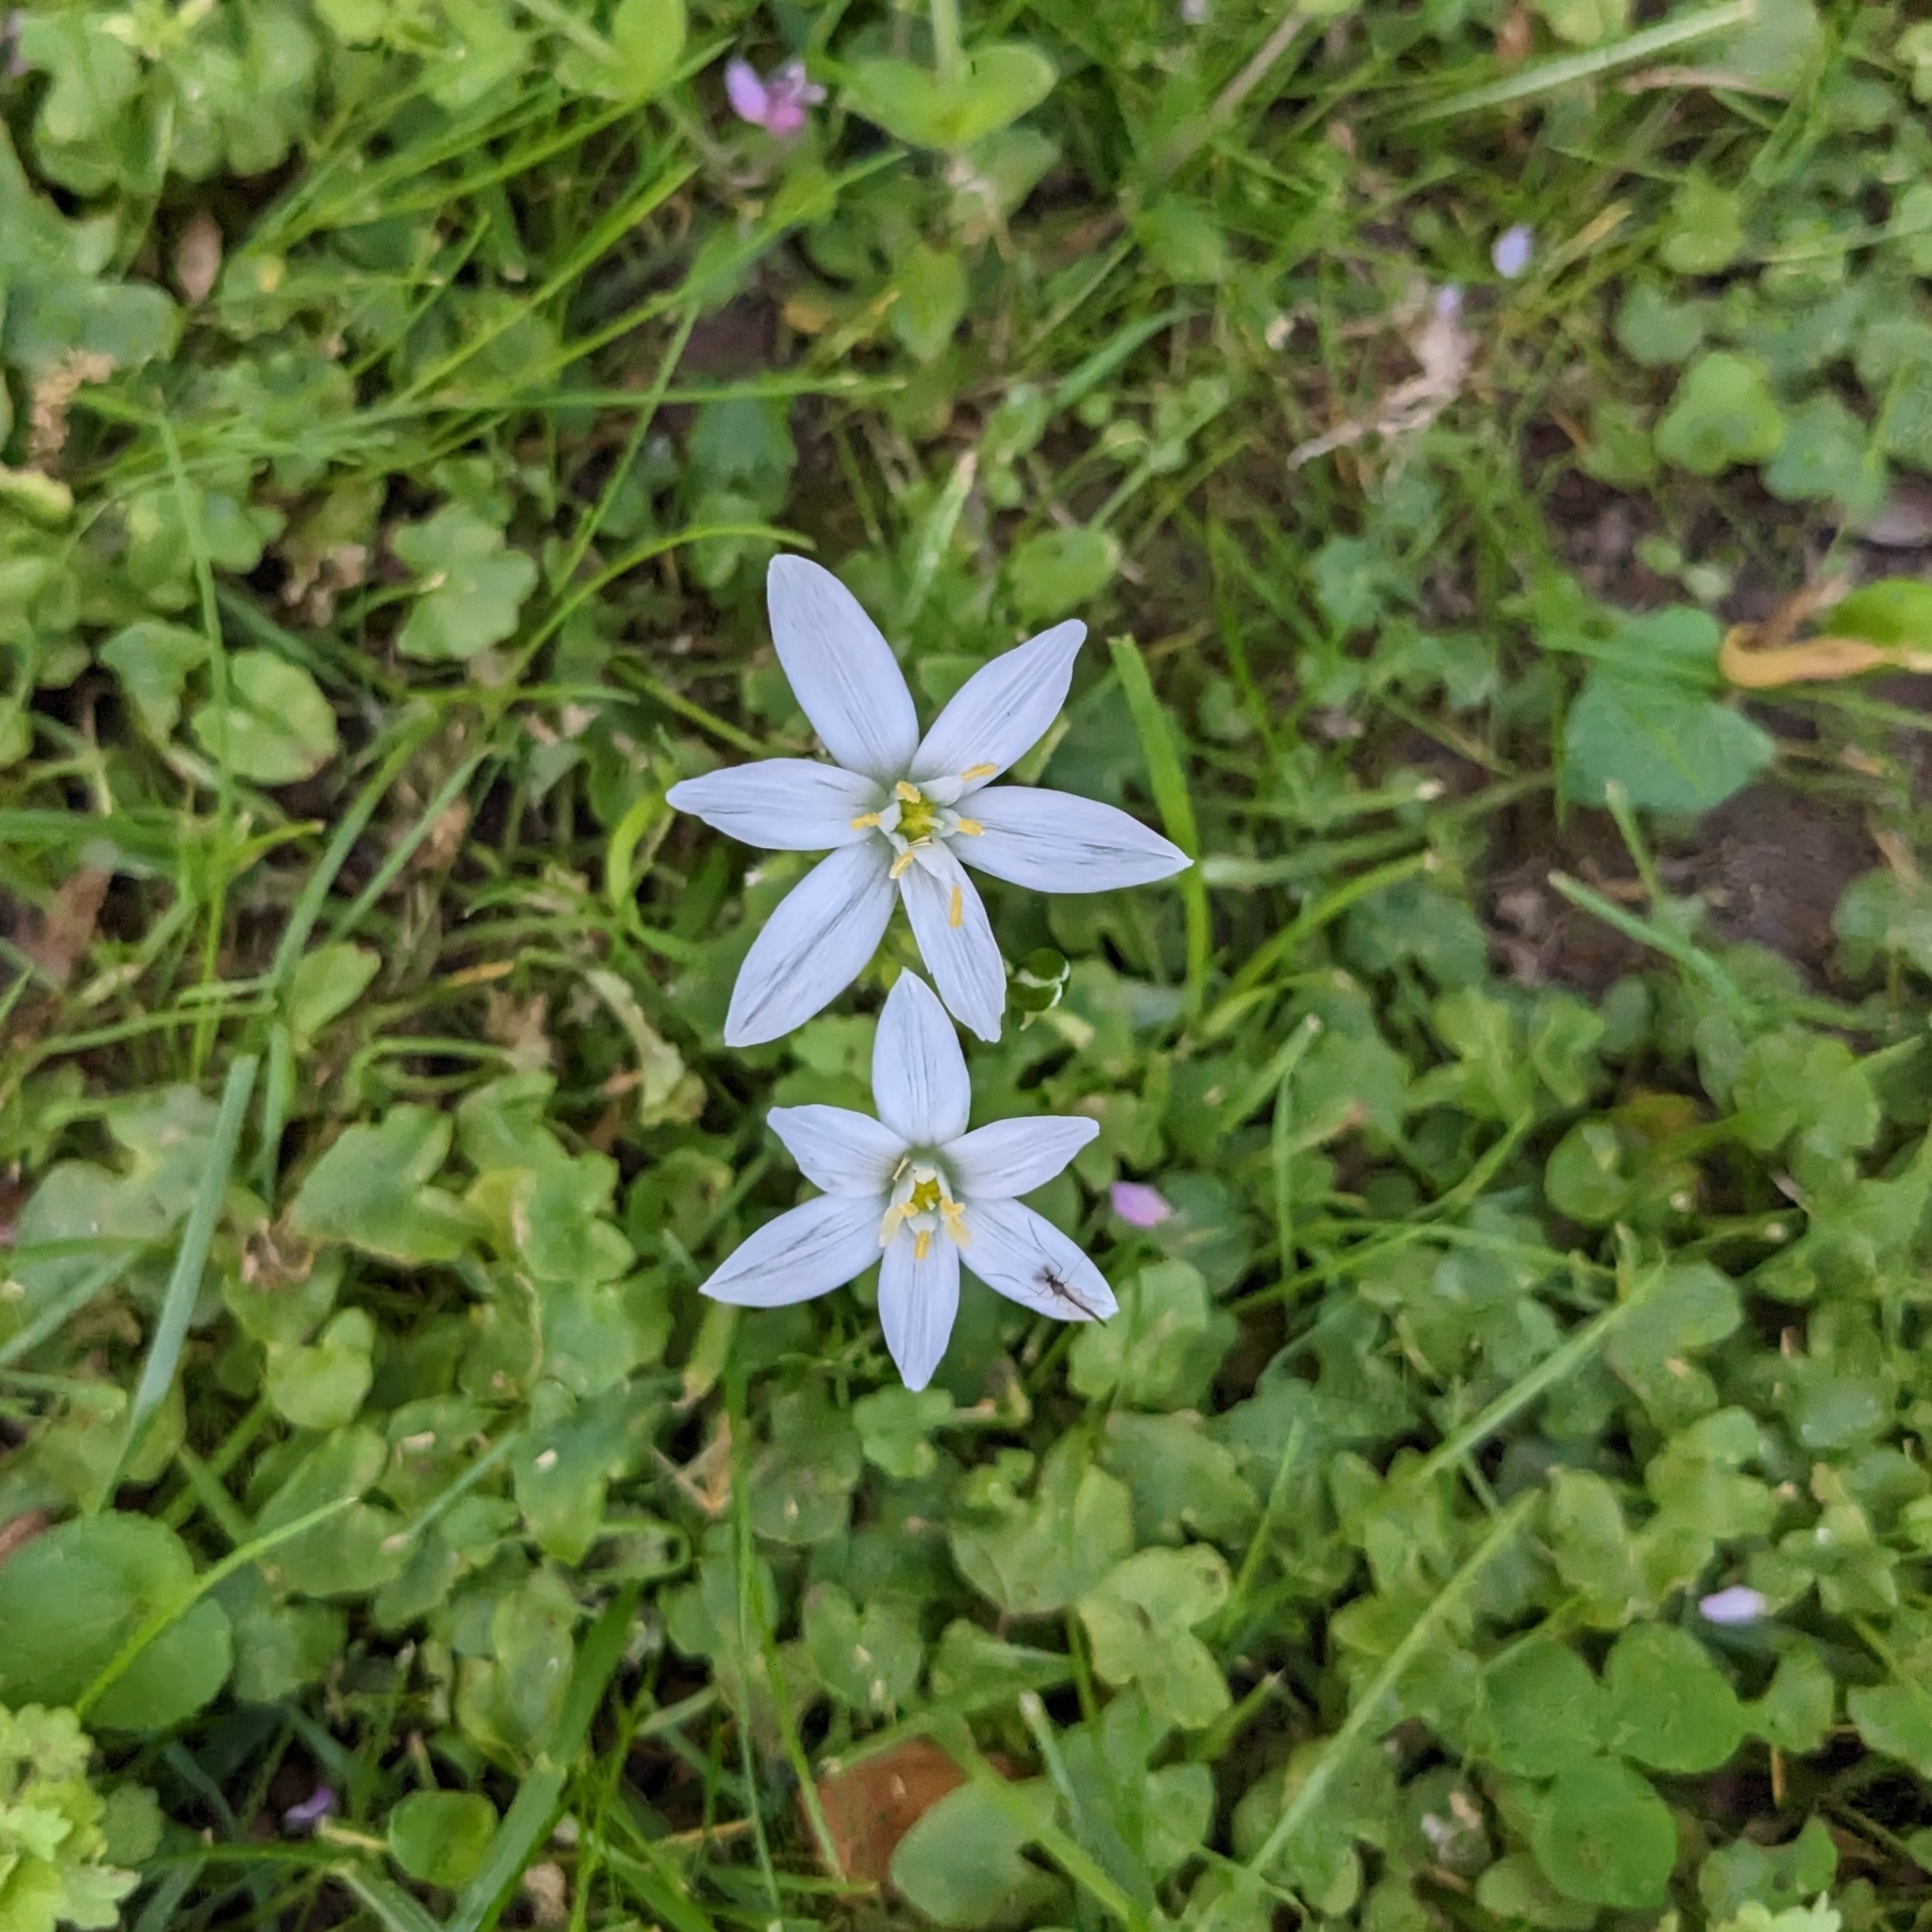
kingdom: Plantae
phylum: Tracheophyta
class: Liliopsida
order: Asparagales
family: Asparagaceae
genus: Ornithogalum
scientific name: Ornithogalum umbellatum
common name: Garden star-of-bethlehem
